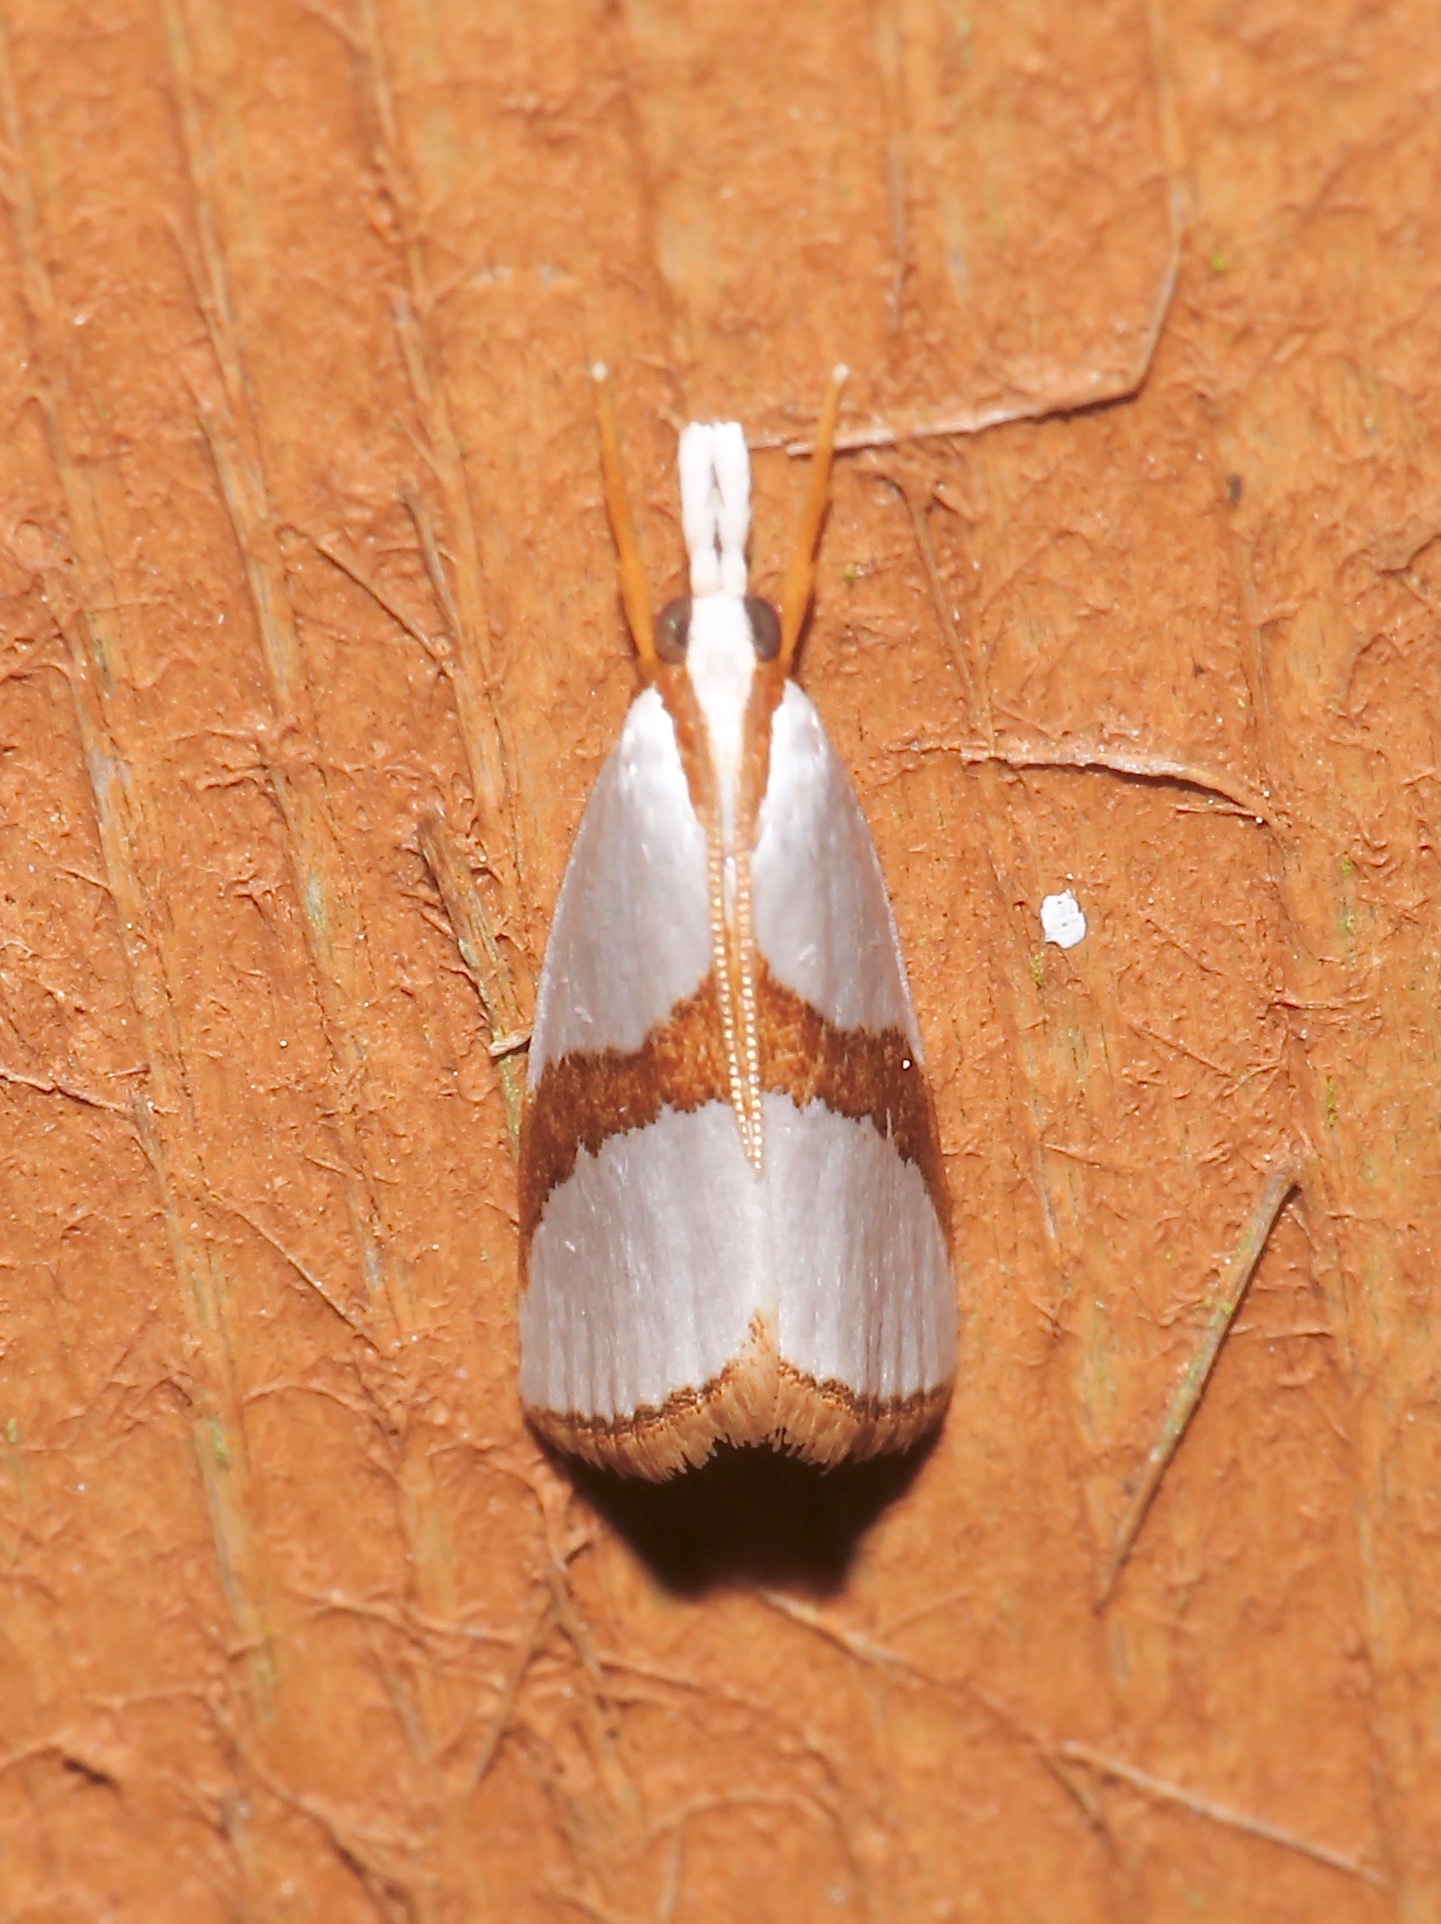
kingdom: Animalia
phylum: Arthropoda
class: Insecta
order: Lepidoptera
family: Crambidae
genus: Vaxi
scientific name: Vaxi critica
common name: Straight-lined vaxi moth
